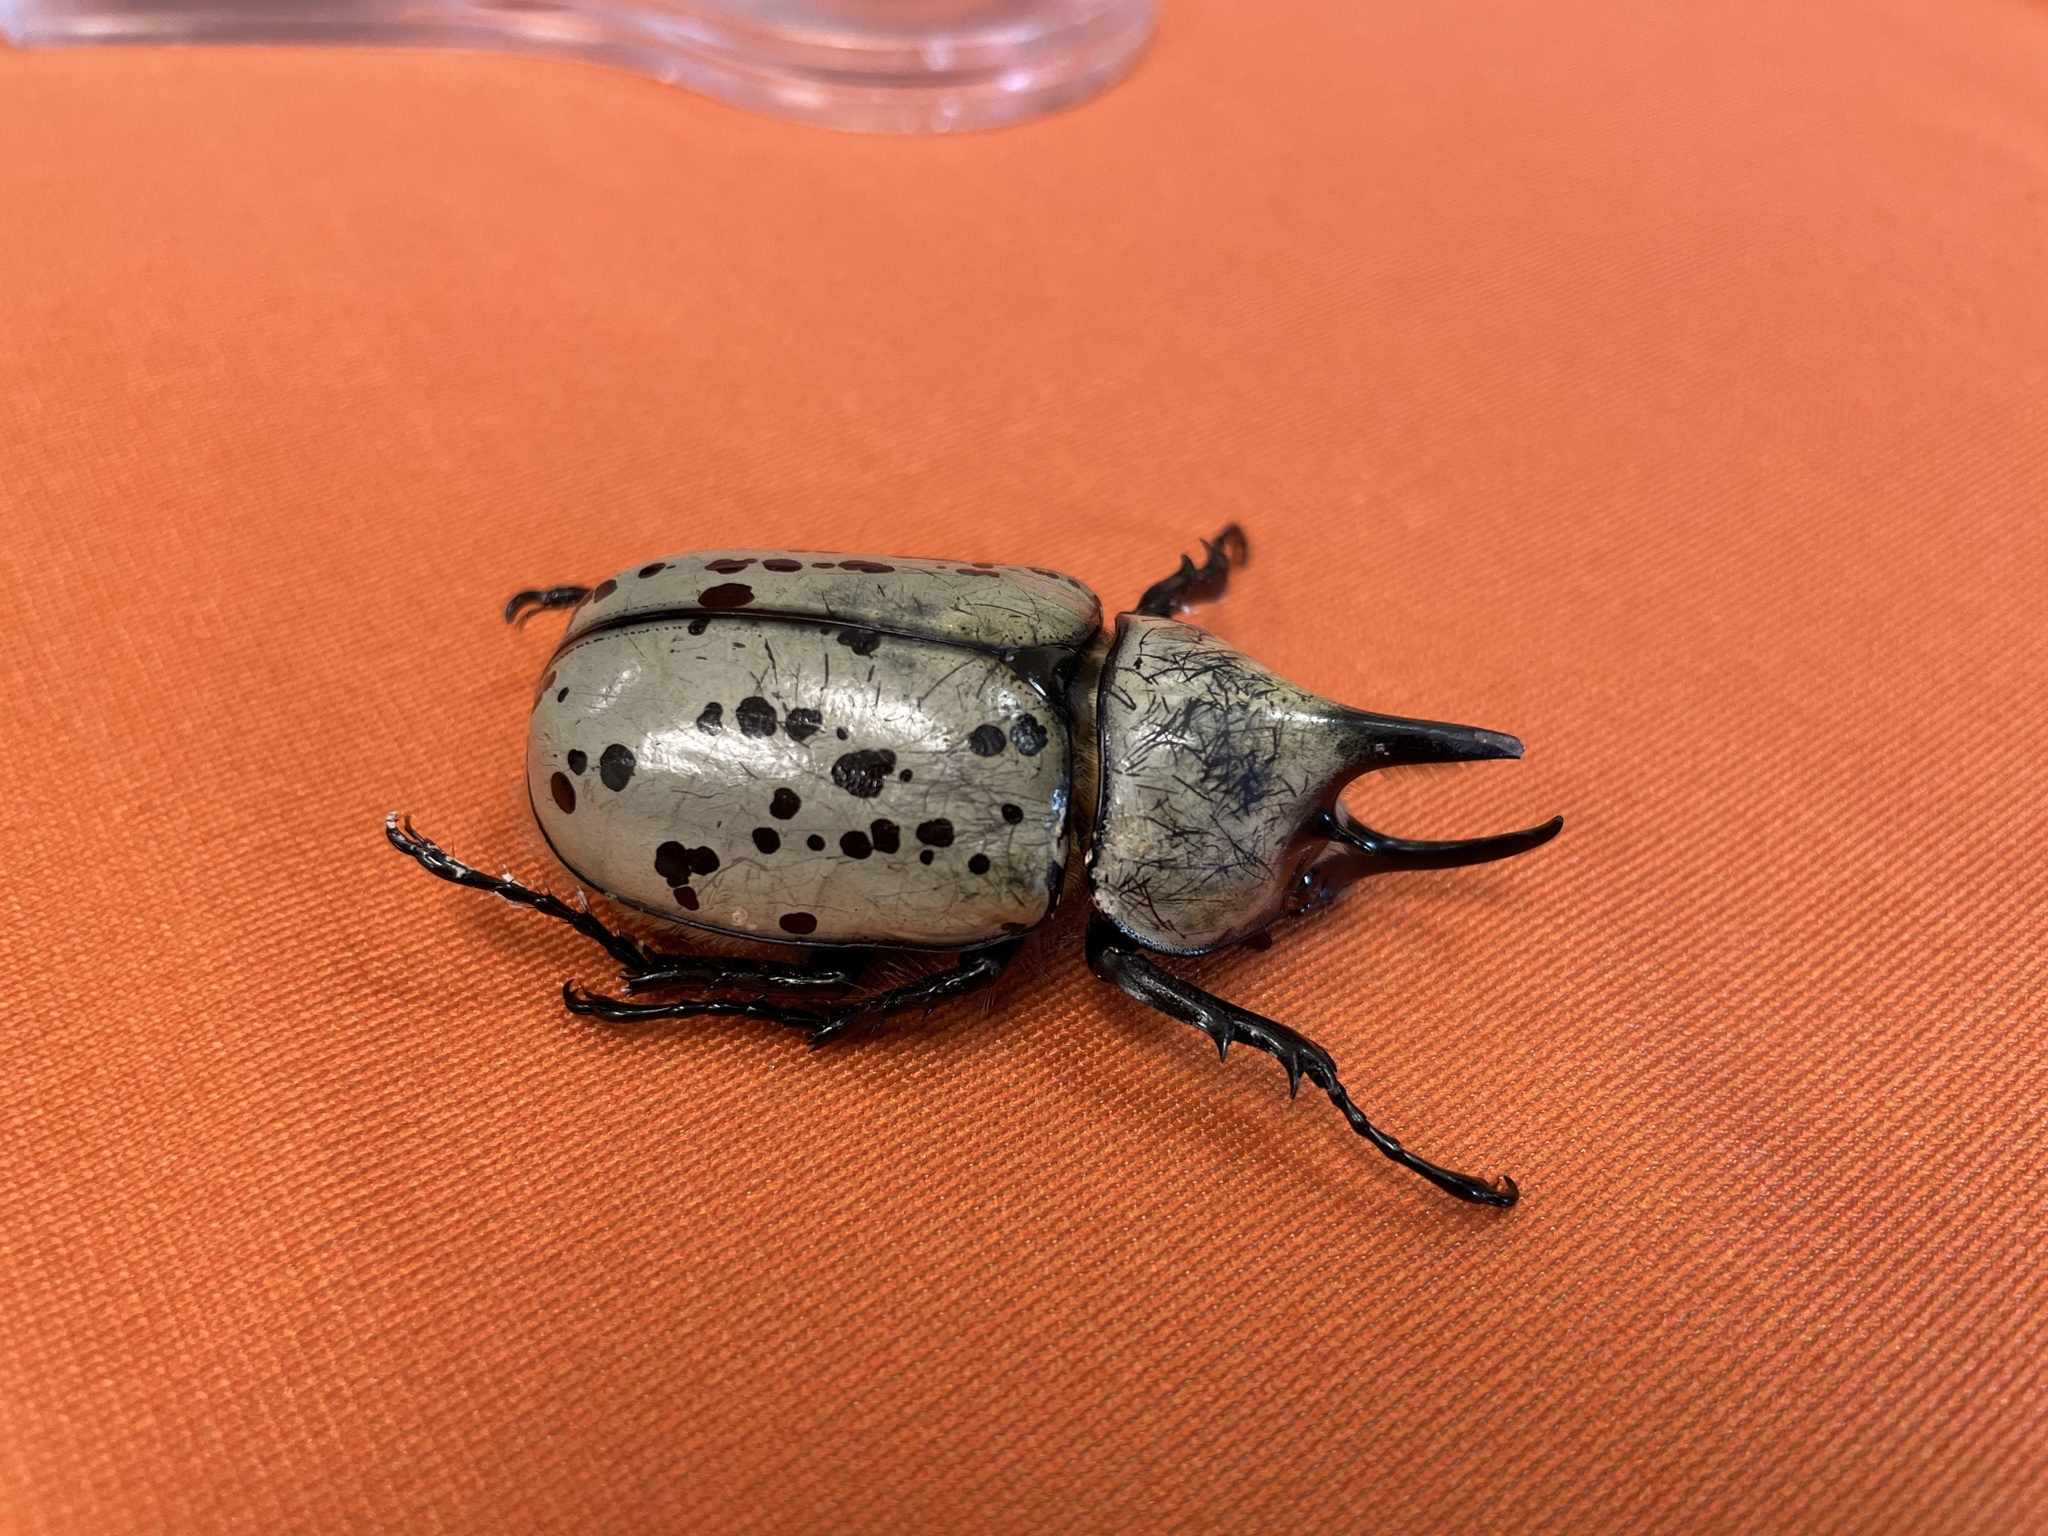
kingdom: Animalia
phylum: Arthropoda
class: Insecta
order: Coleoptera
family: Scarabaeidae
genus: Dynastes
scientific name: Dynastes tityus
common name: Eastern hercules beetle
